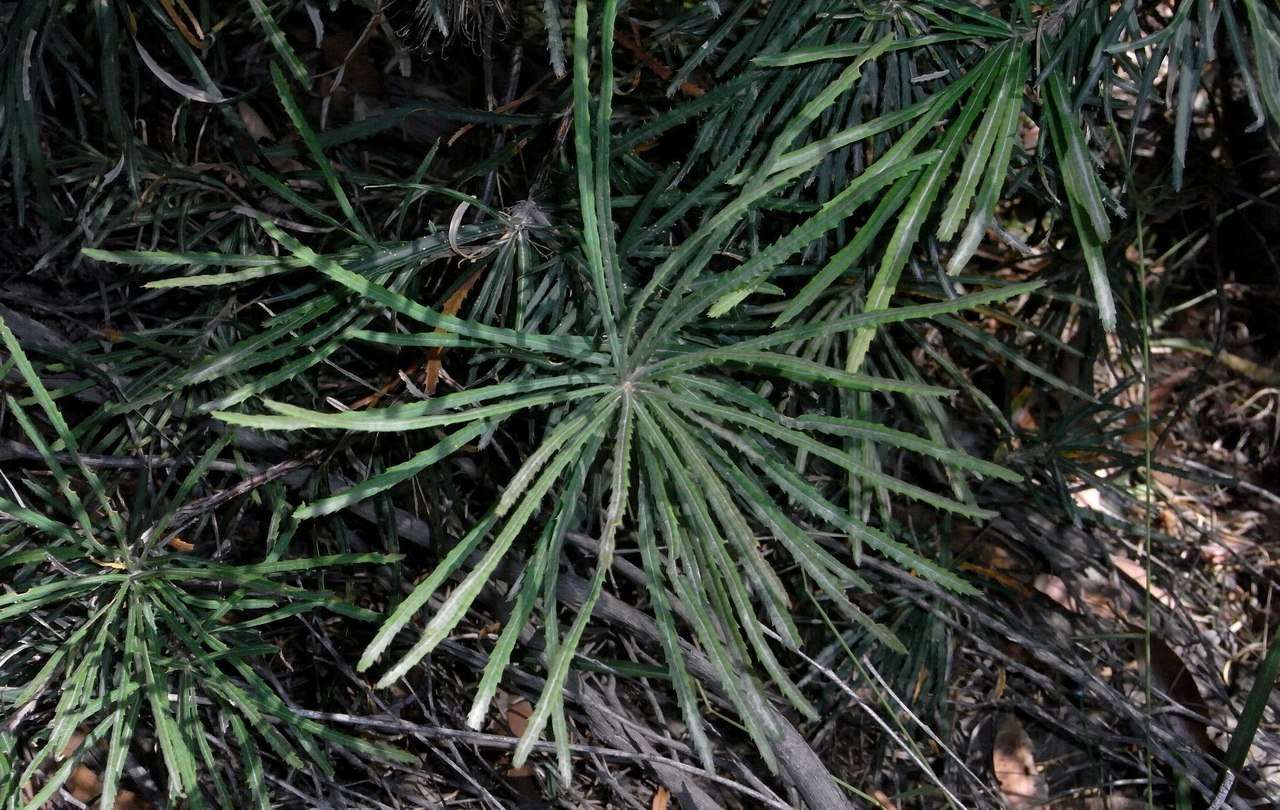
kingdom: Plantae
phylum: Tracheophyta
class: Magnoliopsida
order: Proteales
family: Proteaceae
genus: Banksia
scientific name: Banksia spinulosa
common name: Hairpin banksia
